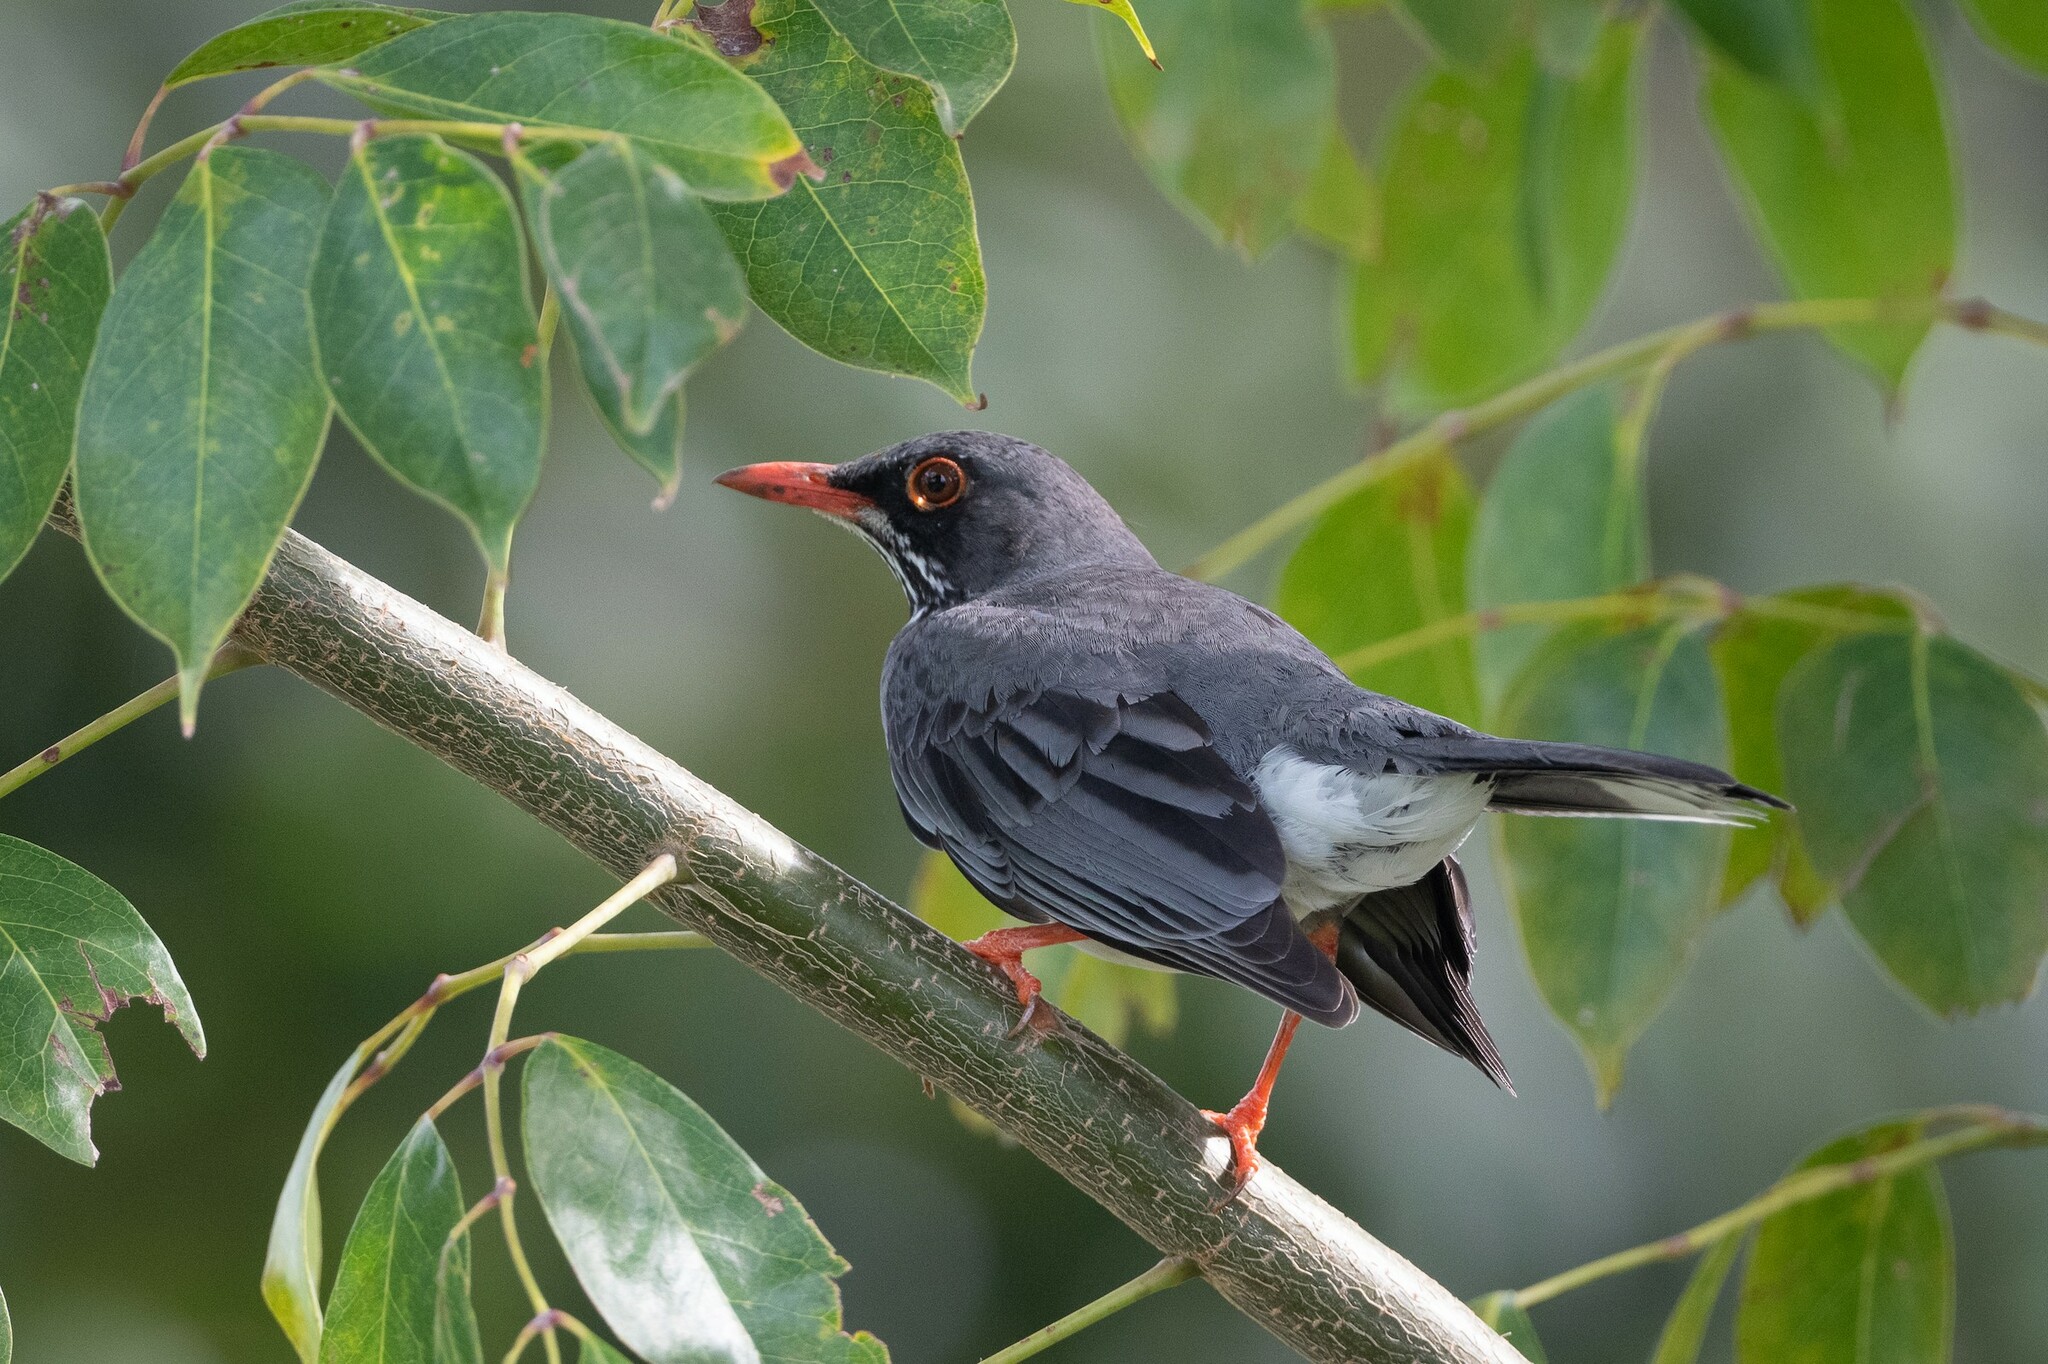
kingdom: Animalia
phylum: Chordata
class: Aves
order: Passeriformes
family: Turdidae
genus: Turdus
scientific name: Turdus plumbeus
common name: Red-legged thrush
